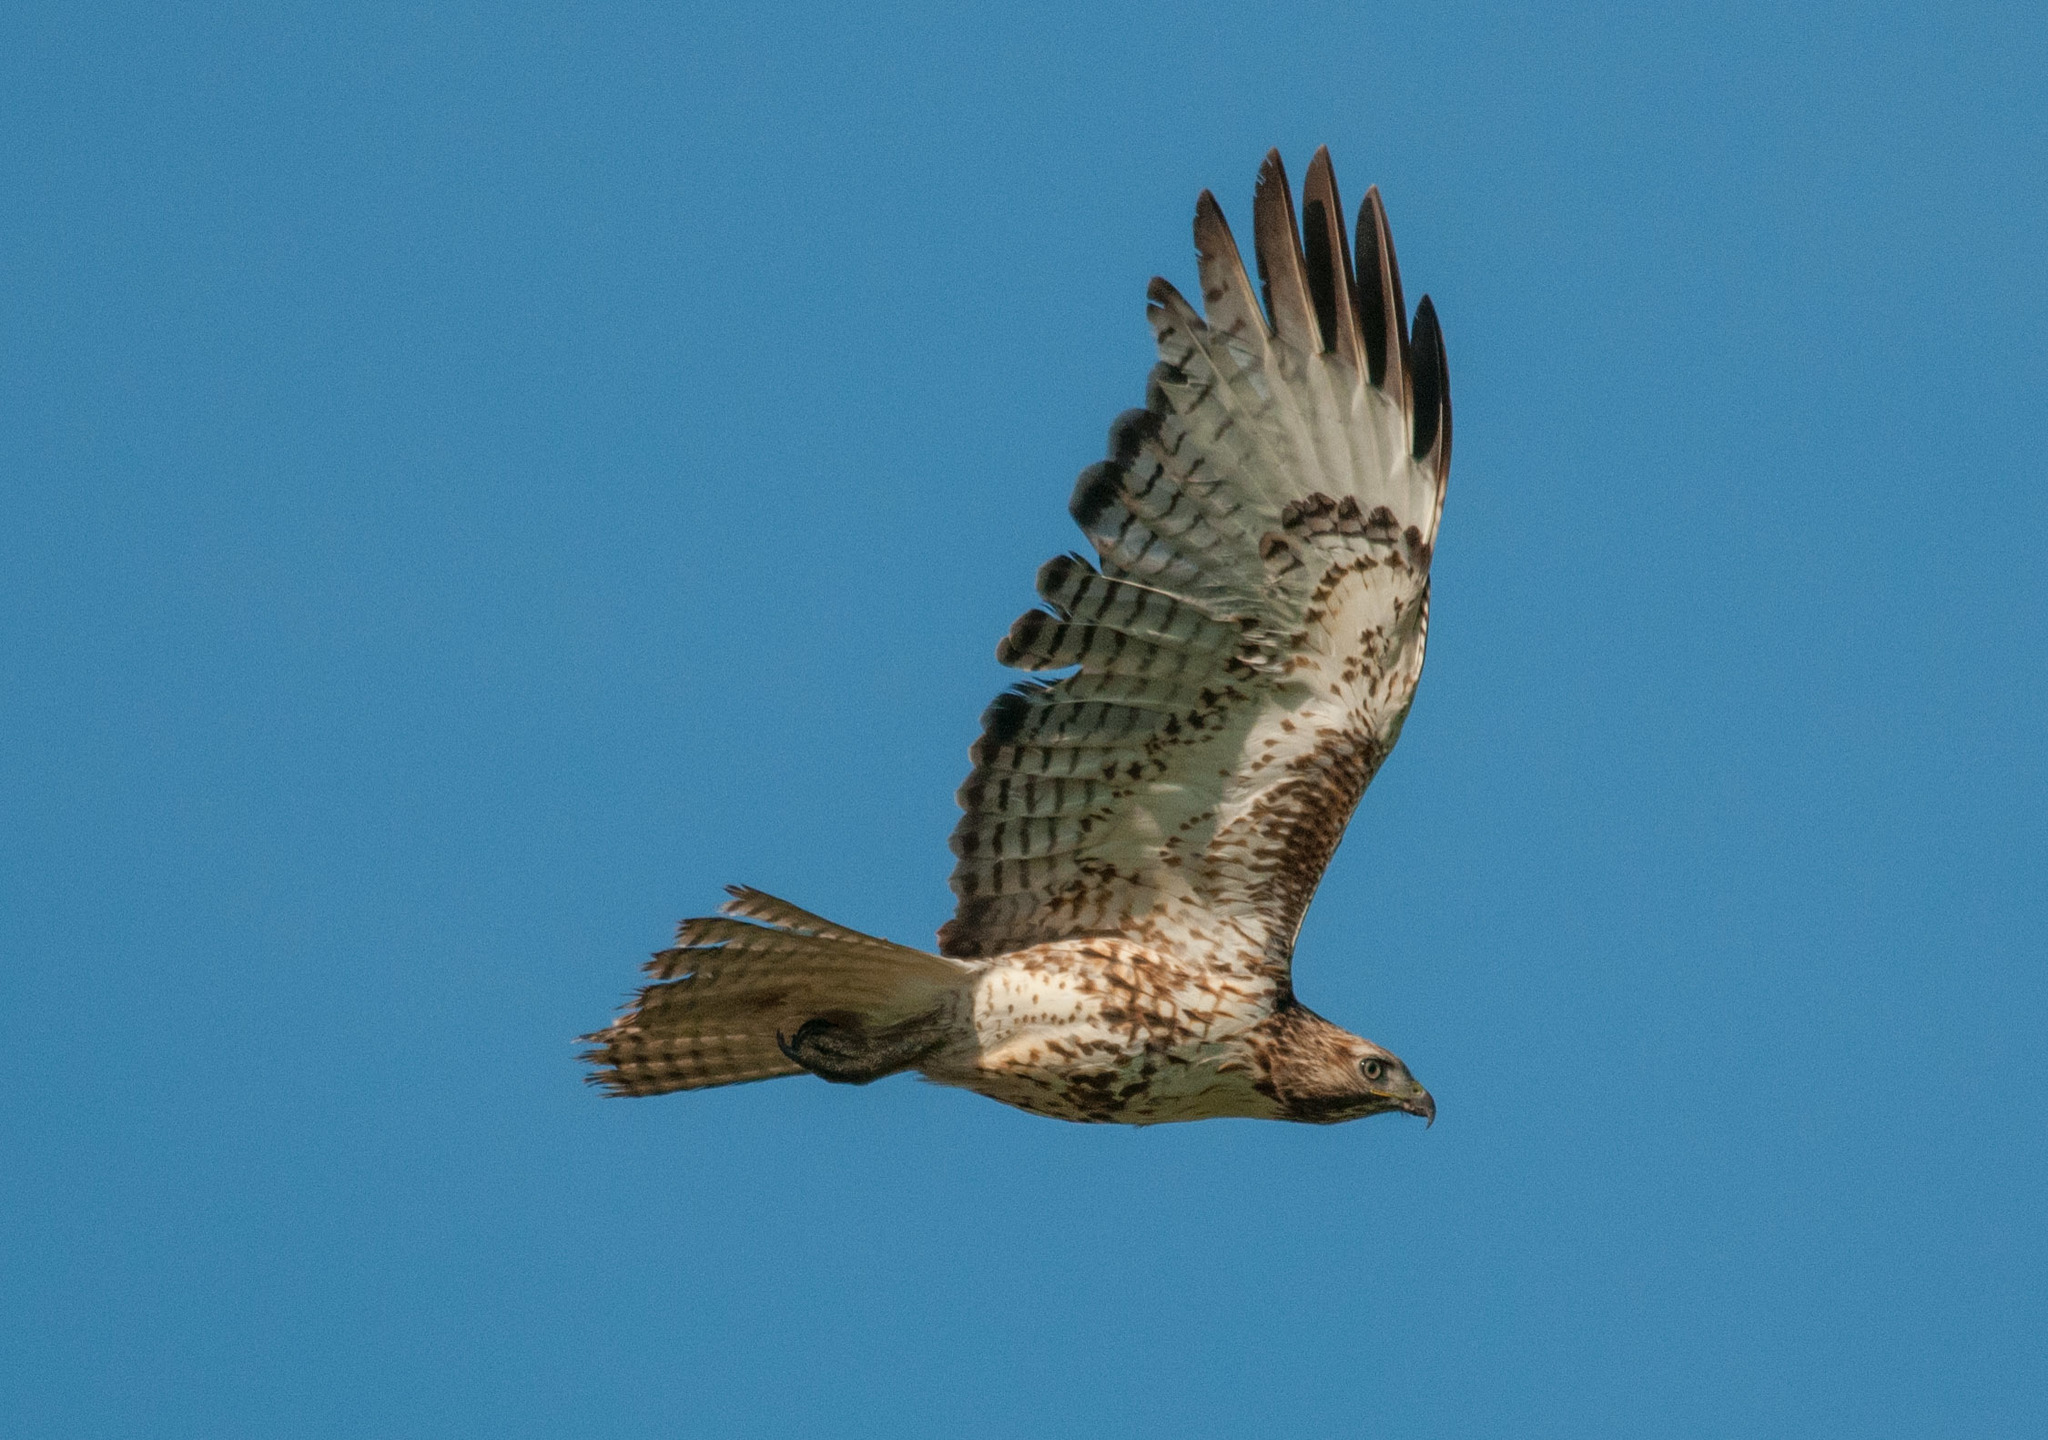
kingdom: Animalia
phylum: Chordata
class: Aves
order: Accipitriformes
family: Accipitridae
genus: Buteo
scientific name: Buteo jamaicensis
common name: Red-tailed hawk
